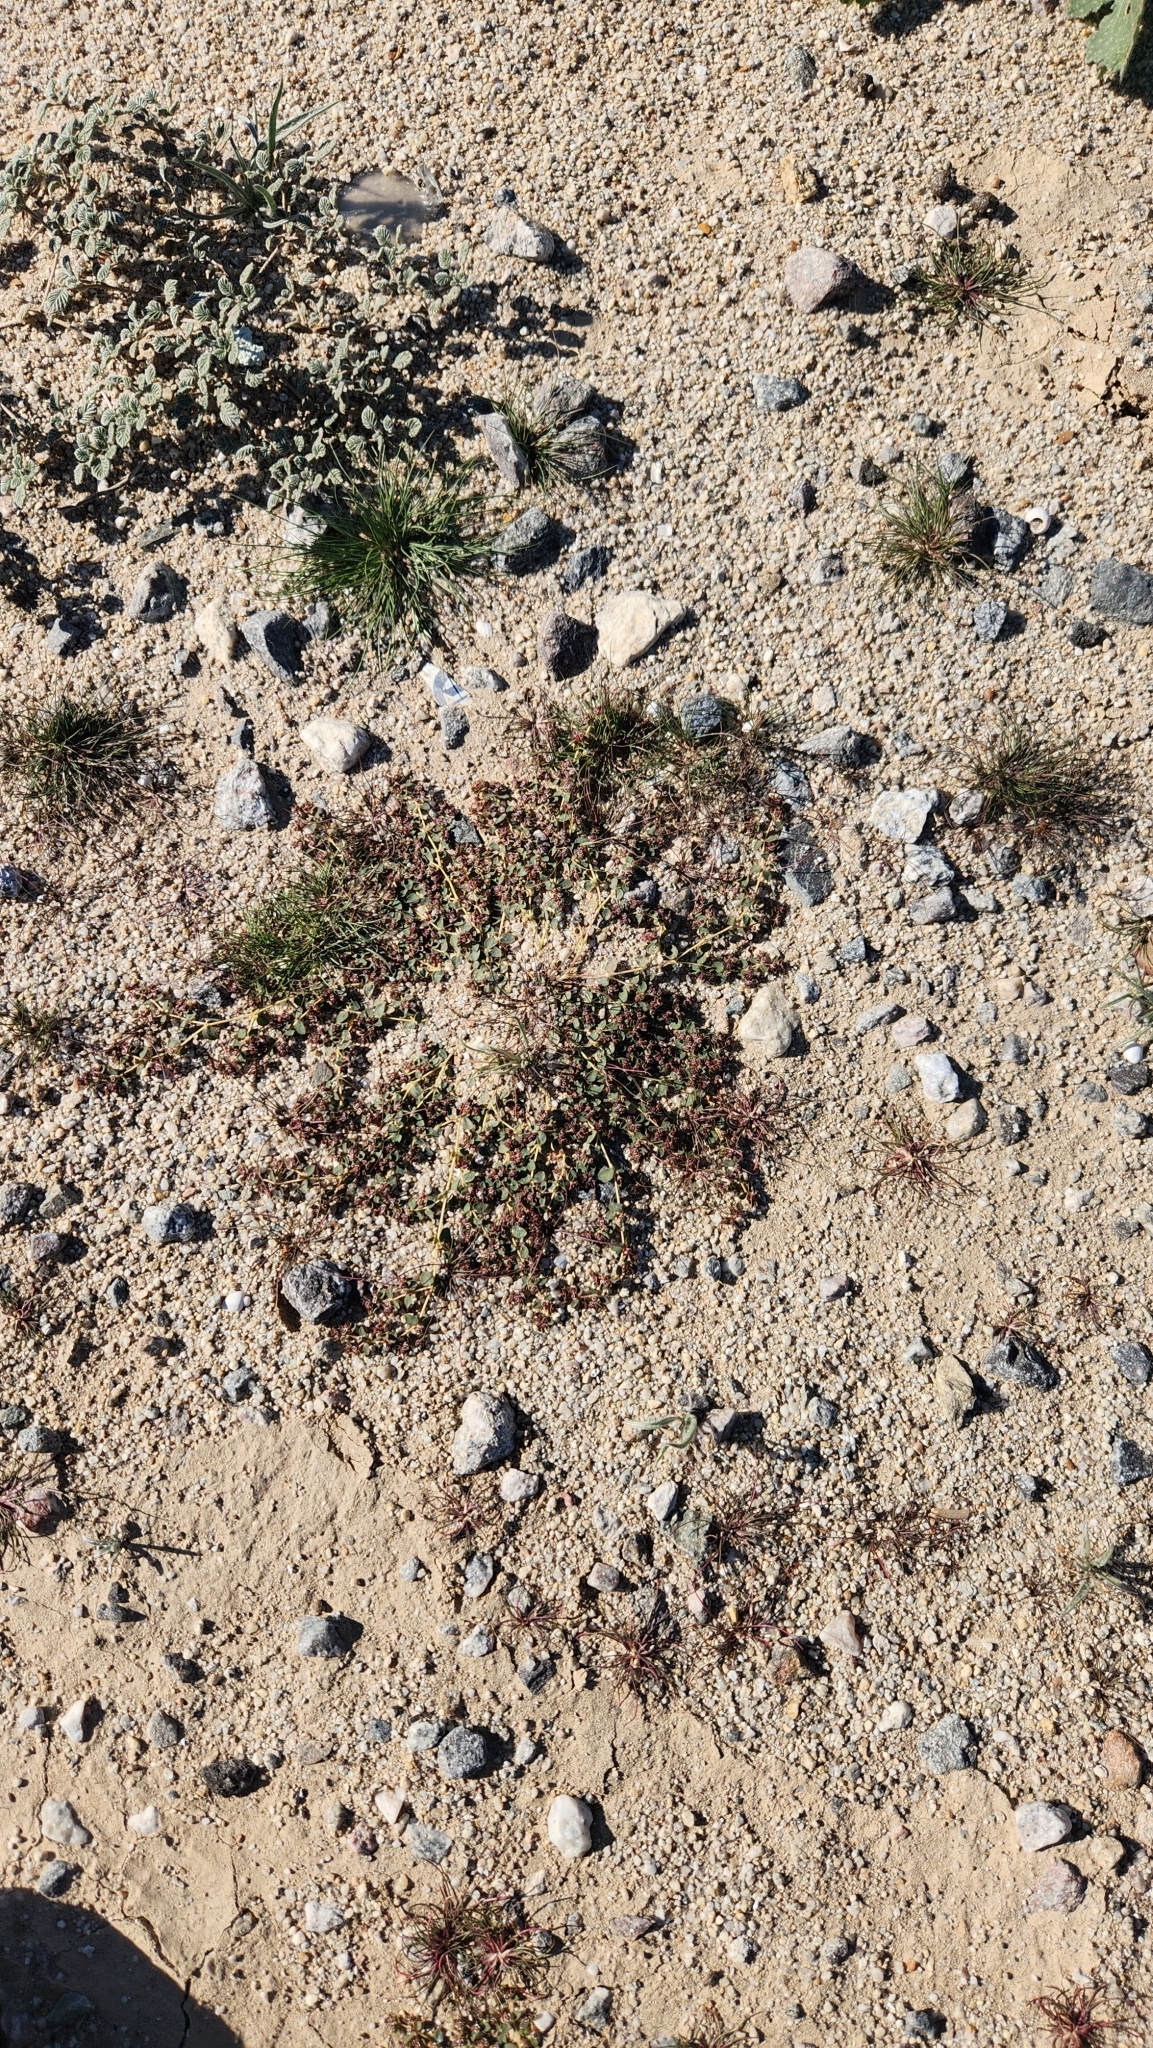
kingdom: Plantae
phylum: Tracheophyta
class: Magnoliopsida
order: Malpighiales
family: Euphorbiaceae
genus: Euphorbia
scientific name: Euphorbia polycarpa
